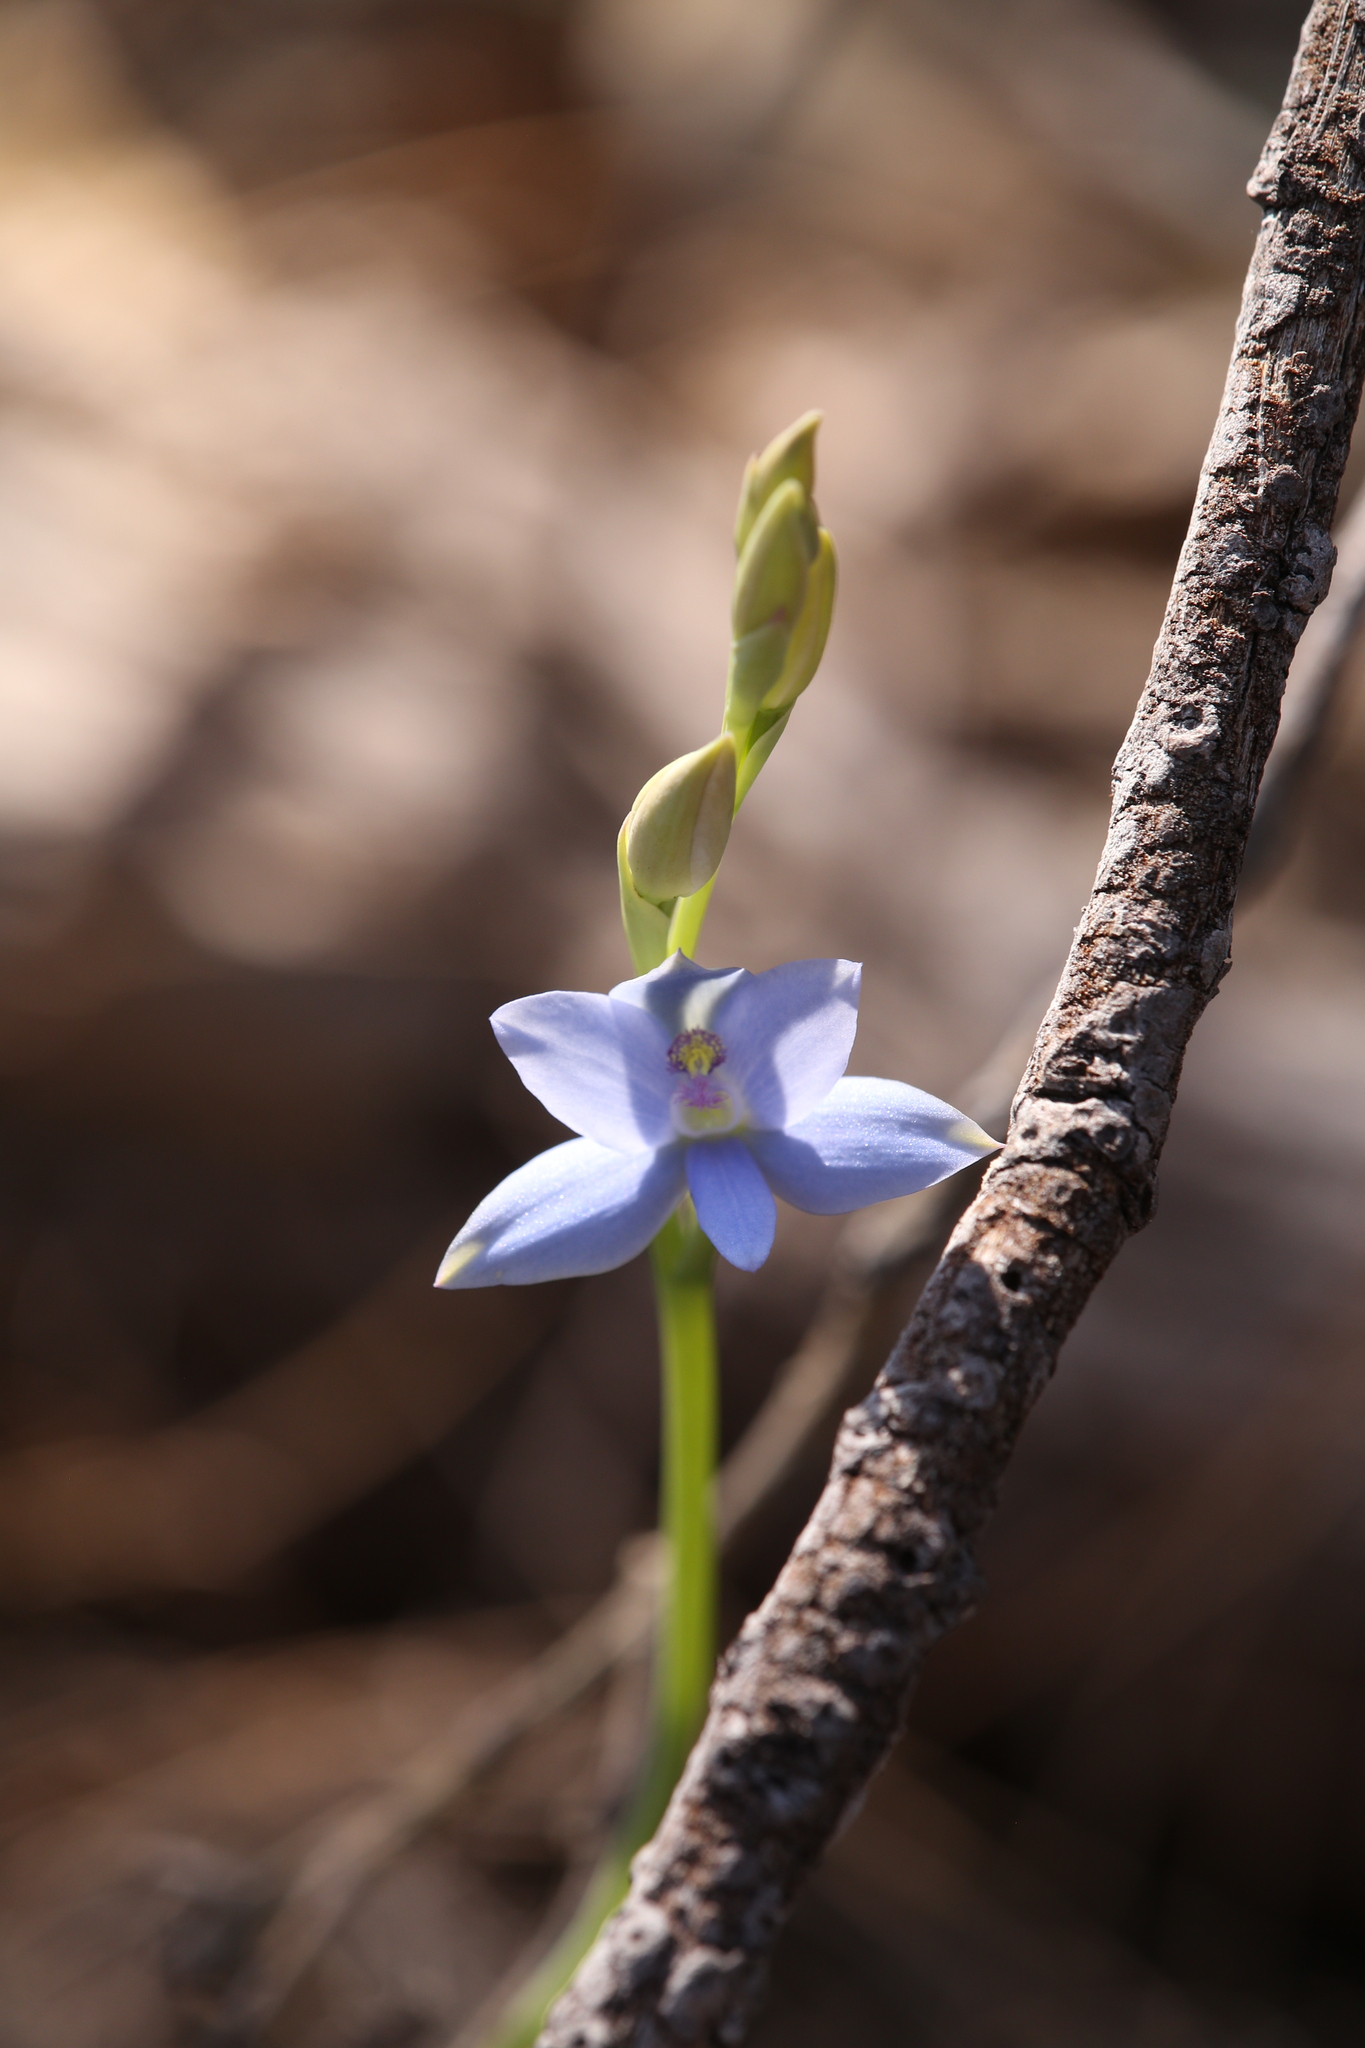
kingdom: Plantae
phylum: Tracheophyta
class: Liliopsida
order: Asparagales
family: Orchidaceae
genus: Thelymitra
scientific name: Thelymitra crinita
